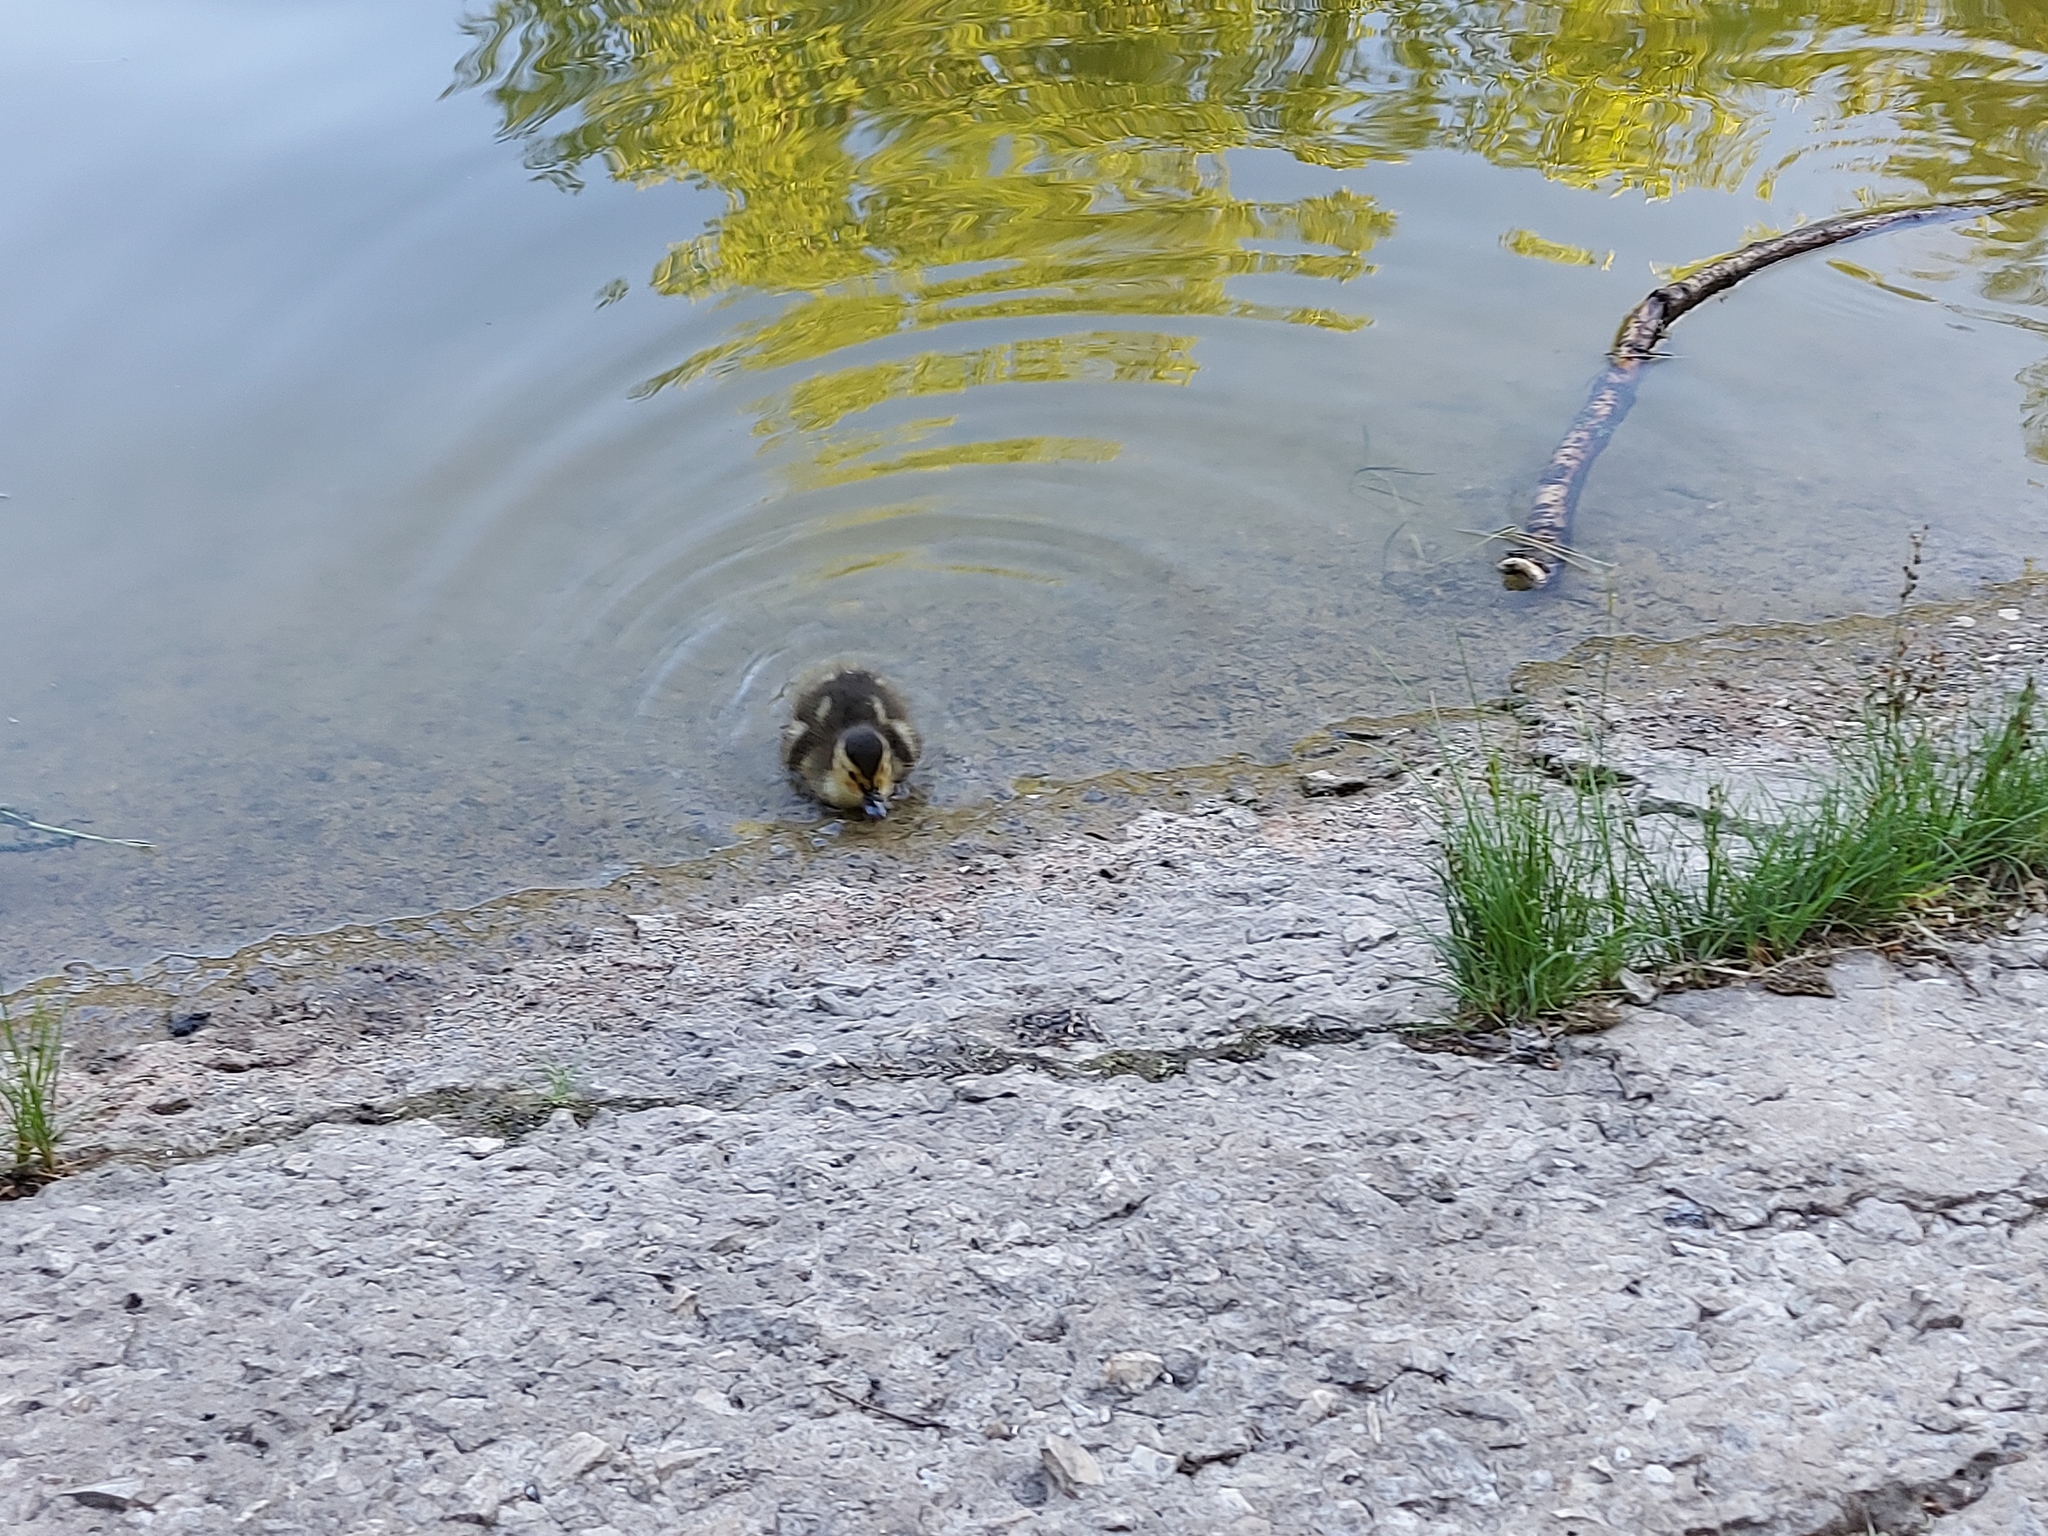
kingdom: Animalia
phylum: Chordata
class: Aves
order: Anseriformes
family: Anatidae
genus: Anas
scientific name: Anas platyrhynchos
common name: Mallard
